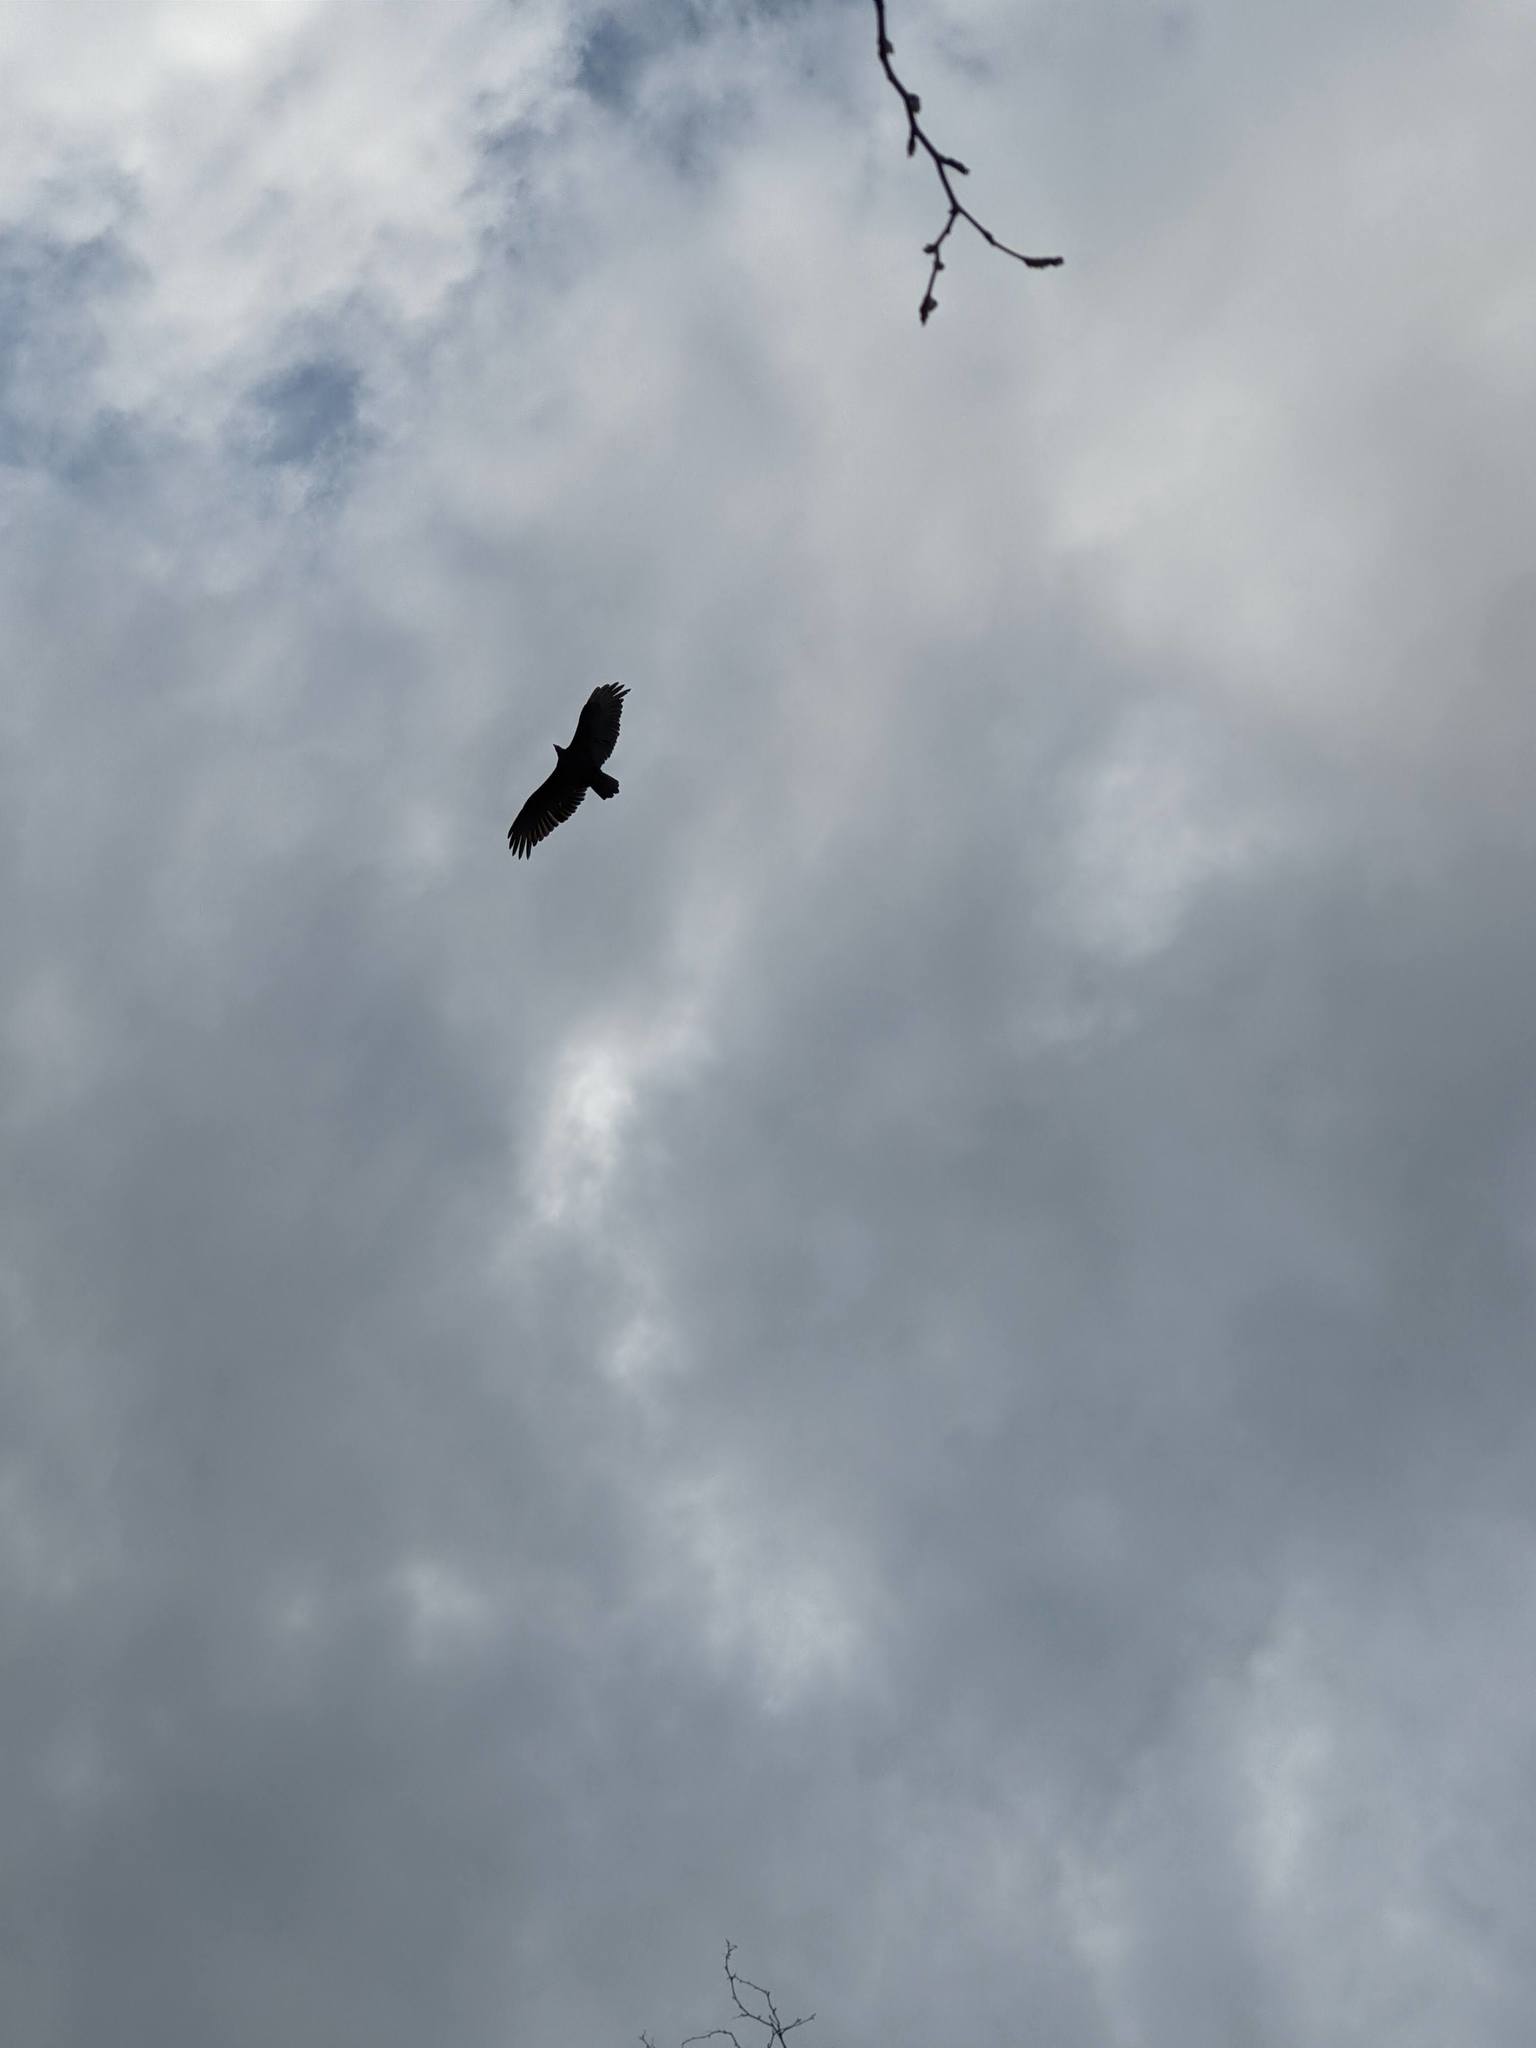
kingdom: Animalia
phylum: Chordata
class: Aves
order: Accipitriformes
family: Cathartidae
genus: Cathartes
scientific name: Cathartes aura
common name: Turkey vulture
